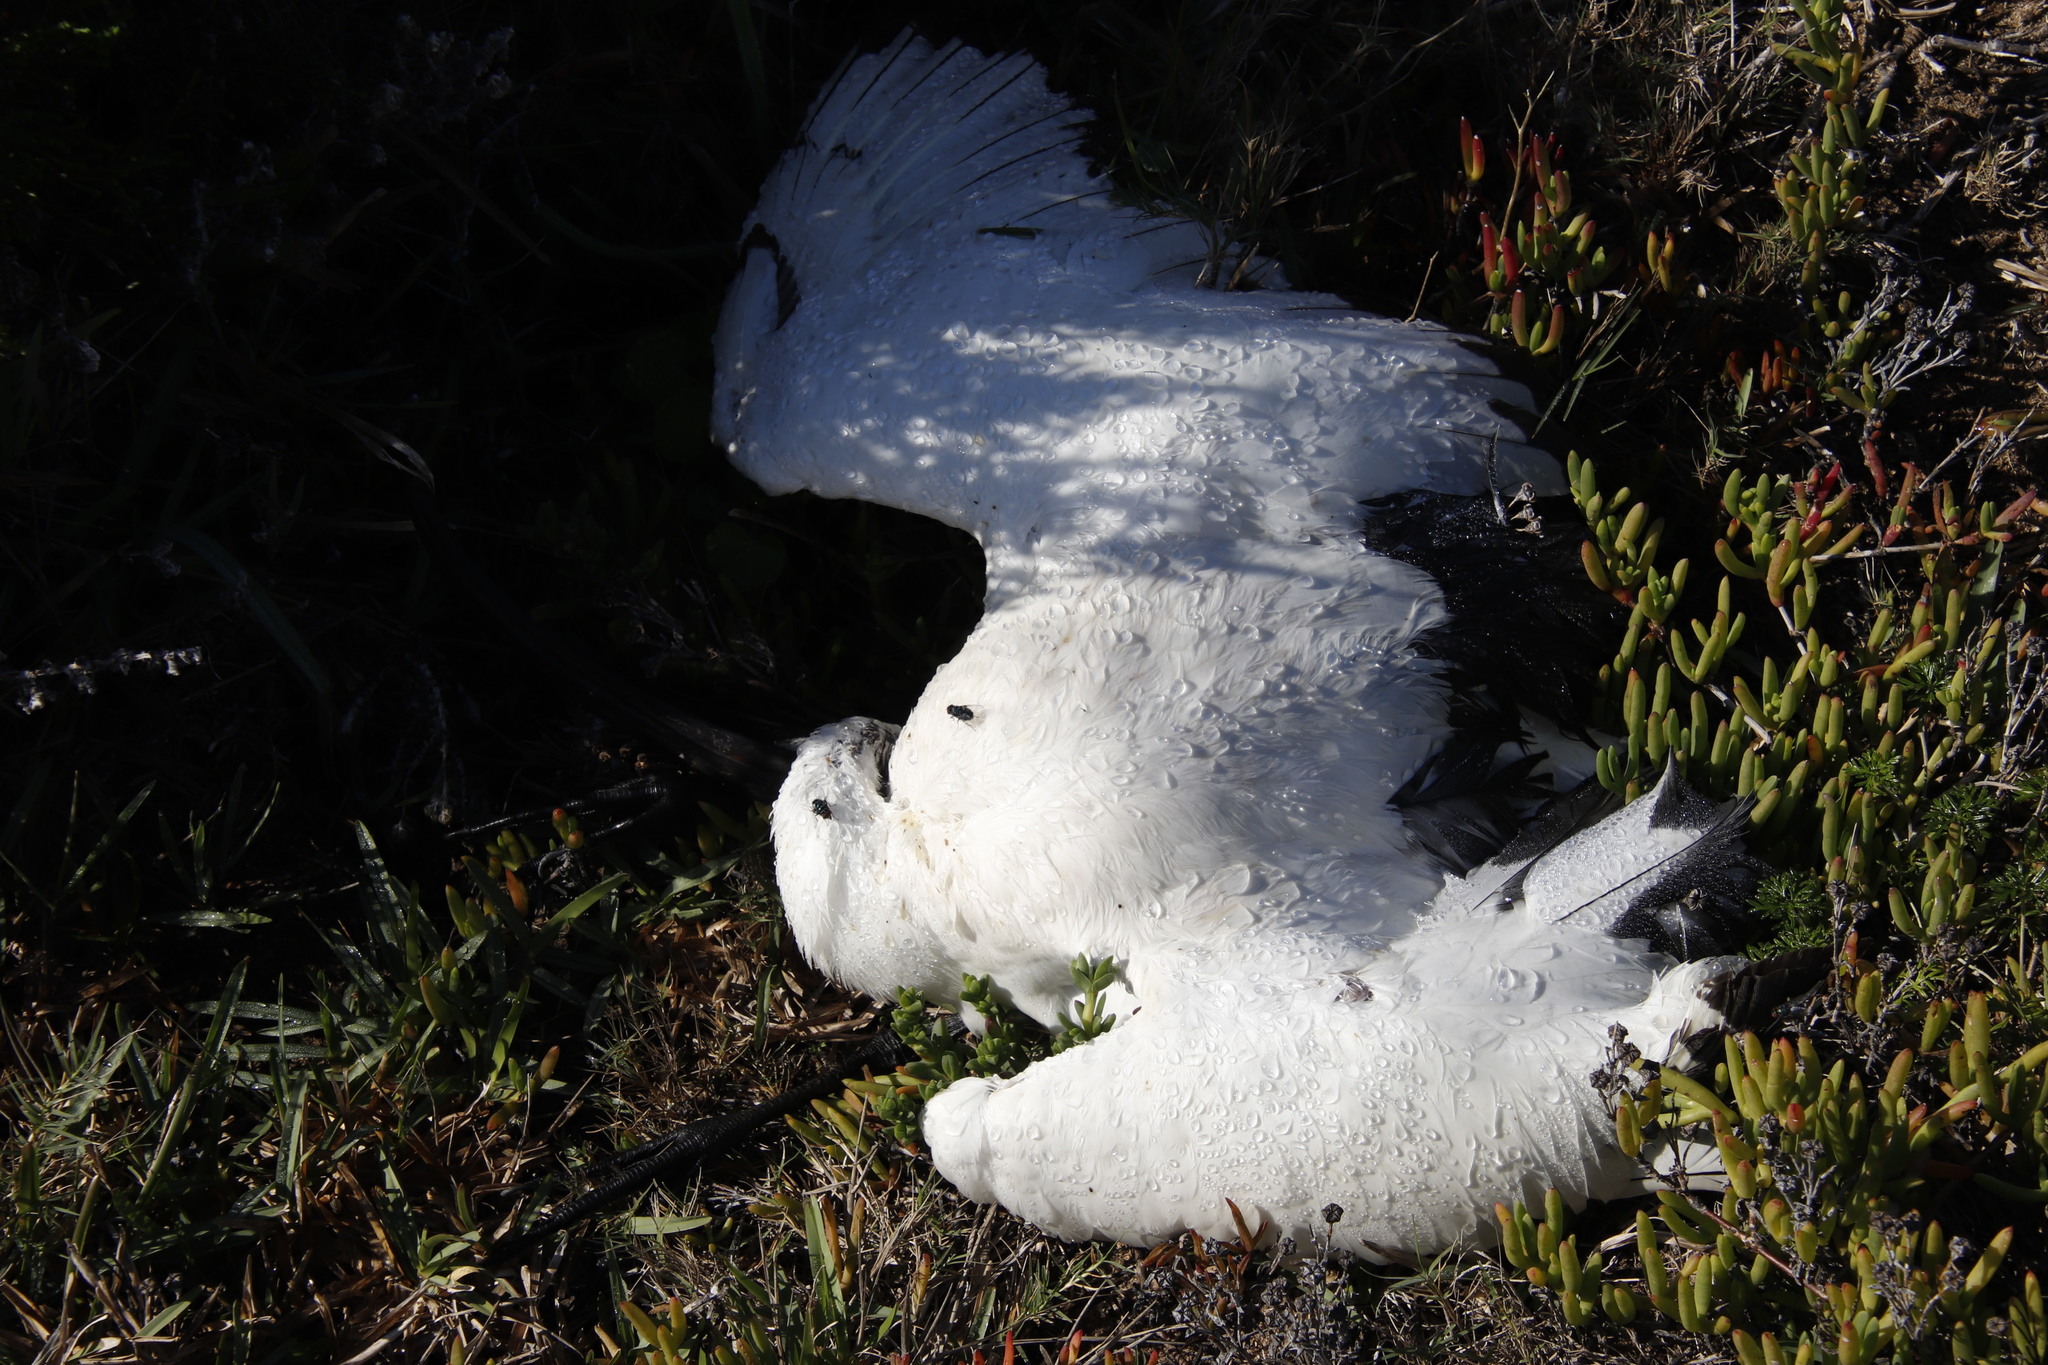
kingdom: Animalia
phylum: Chordata
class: Aves
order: Pelecaniformes
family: Threskiornithidae
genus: Threskiornis
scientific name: Threskiornis aethiopicus
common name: Sacred ibis
